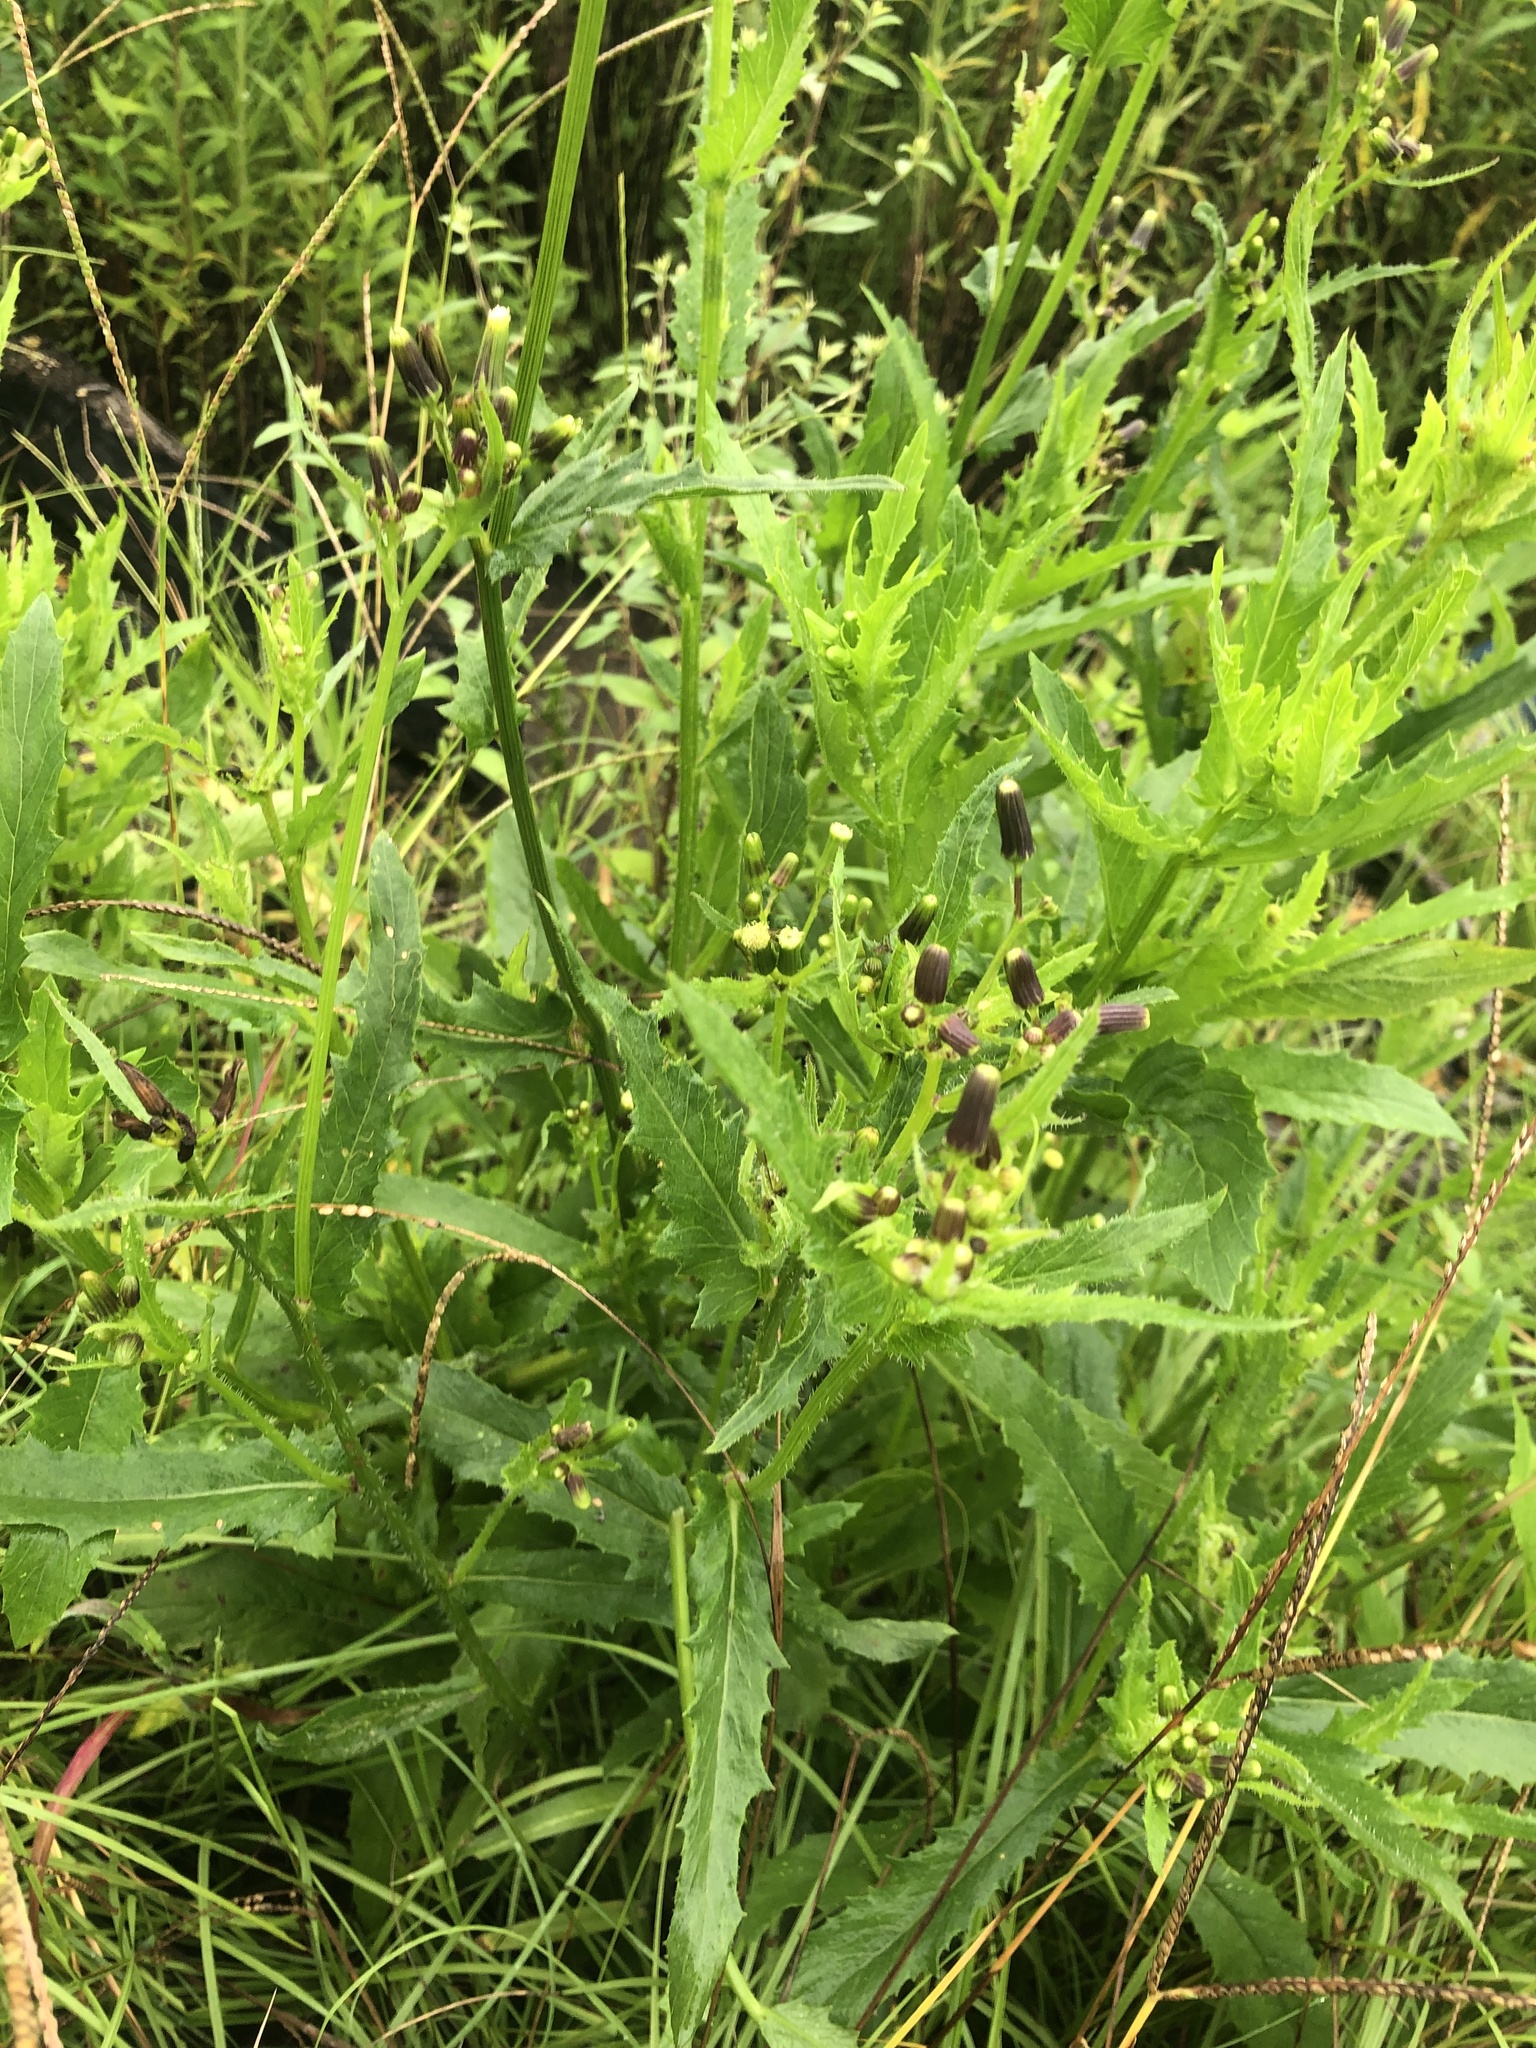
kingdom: Plantae
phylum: Tracheophyta
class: Magnoliopsida
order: Asterales
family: Asteraceae
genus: Erechtites
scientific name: Erechtites hieraciifolius
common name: American burnweed
